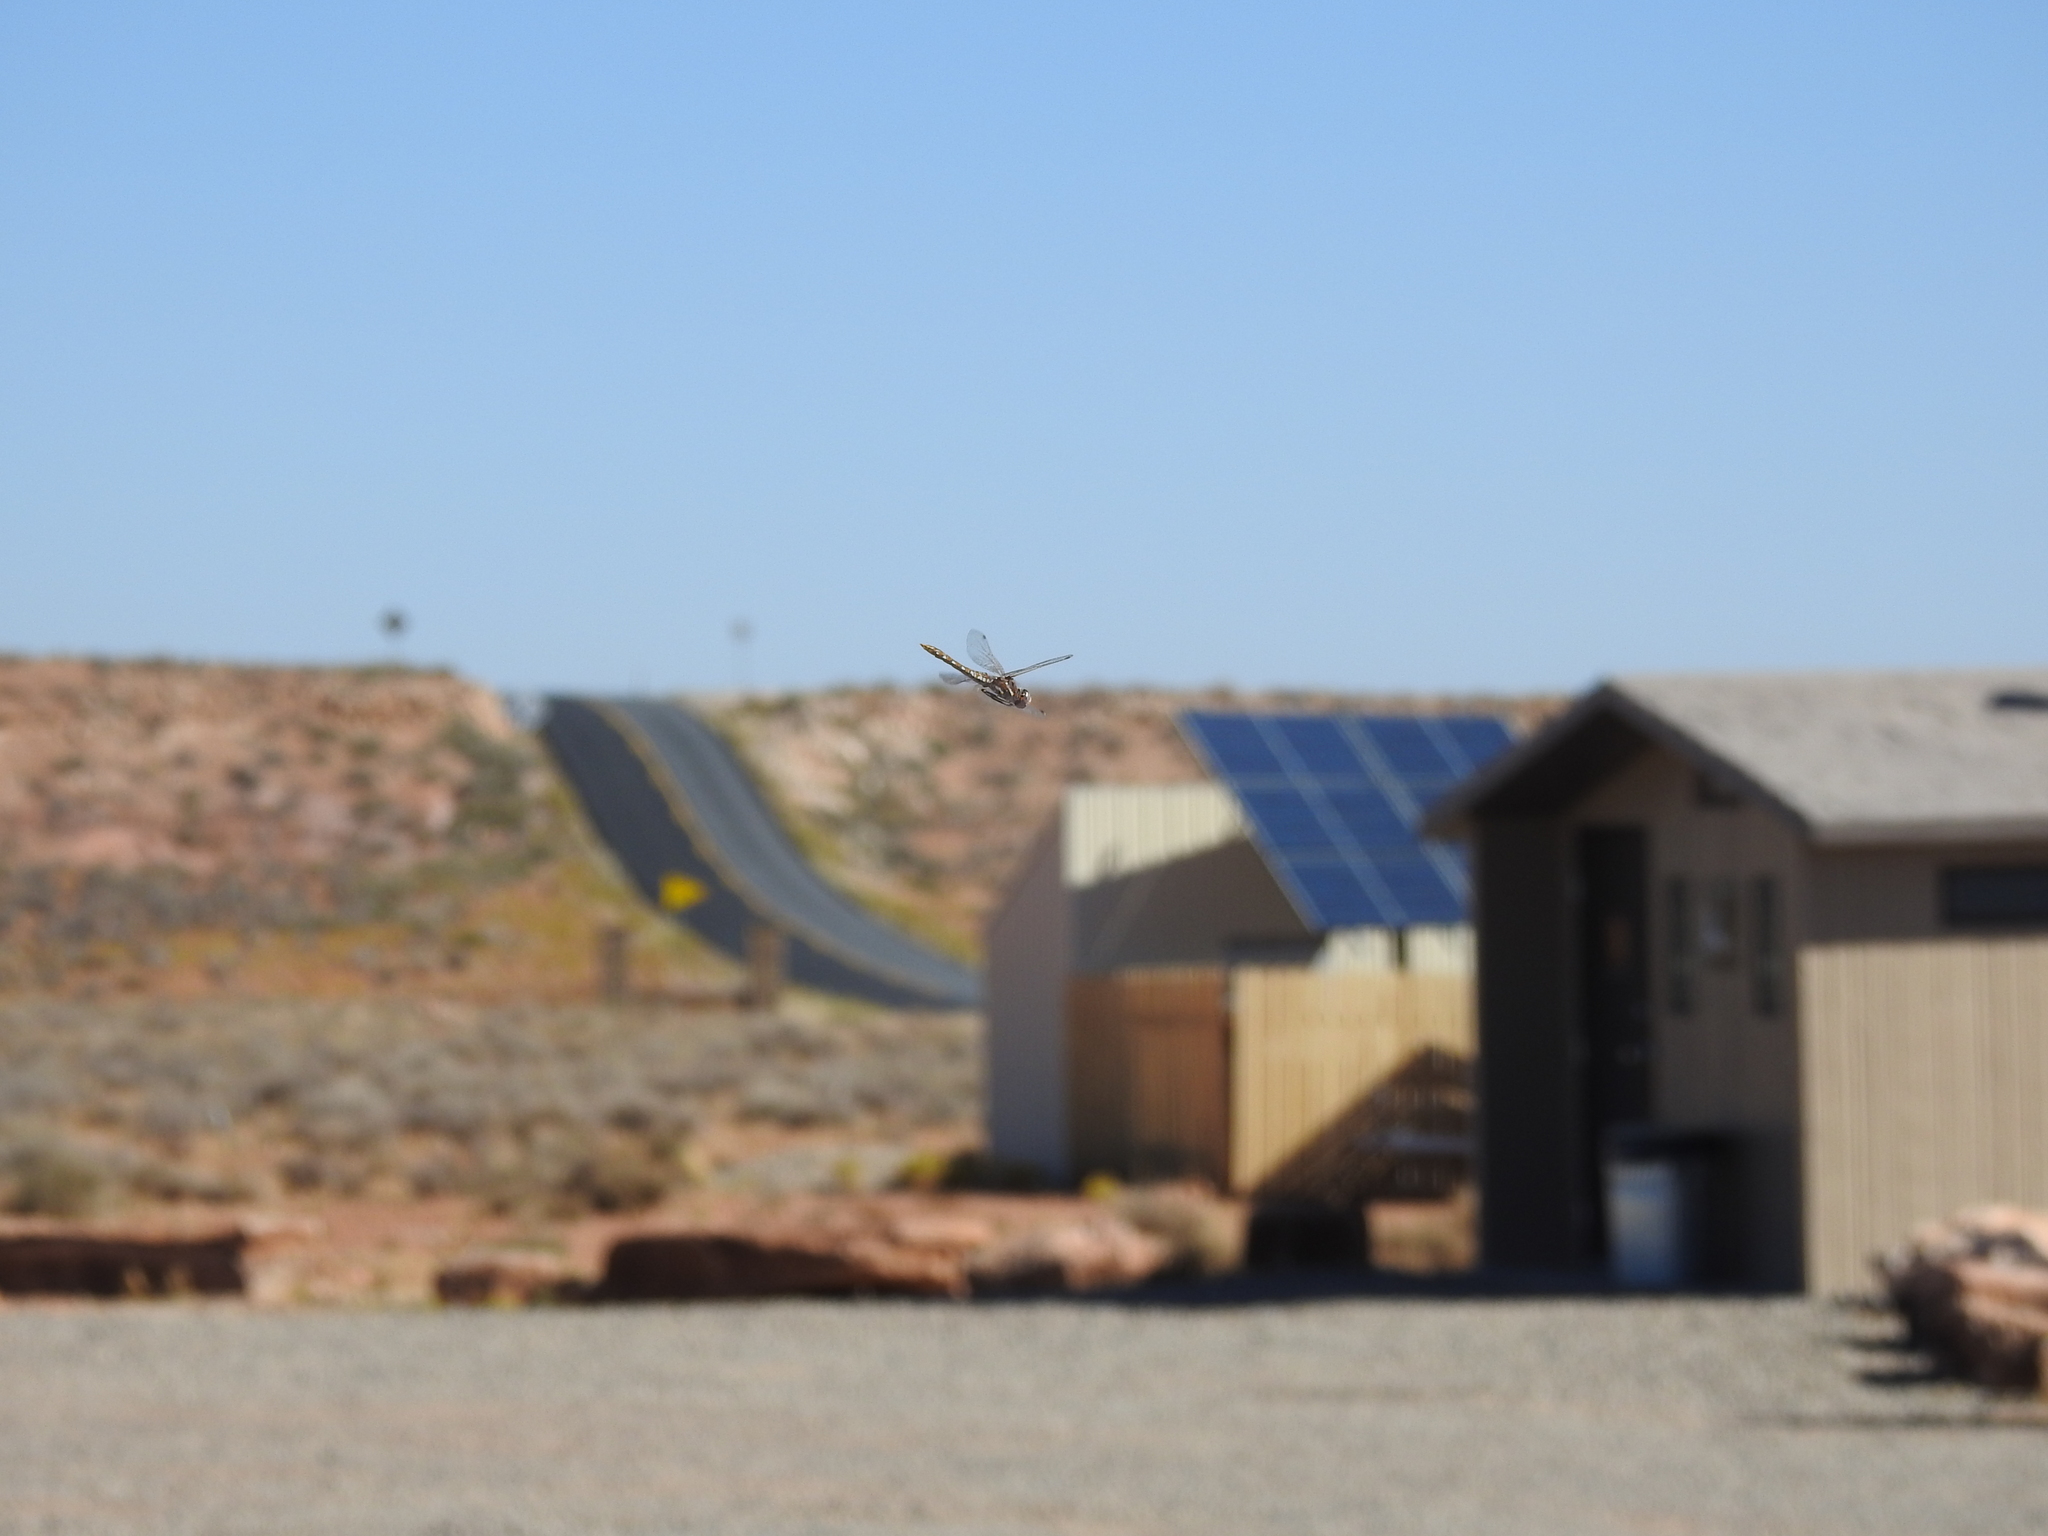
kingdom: Animalia
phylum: Arthropoda
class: Insecta
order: Odonata
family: Libellulidae
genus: Sympetrum
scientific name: Sympetrum corruptum
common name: Variegated meadowhawk
